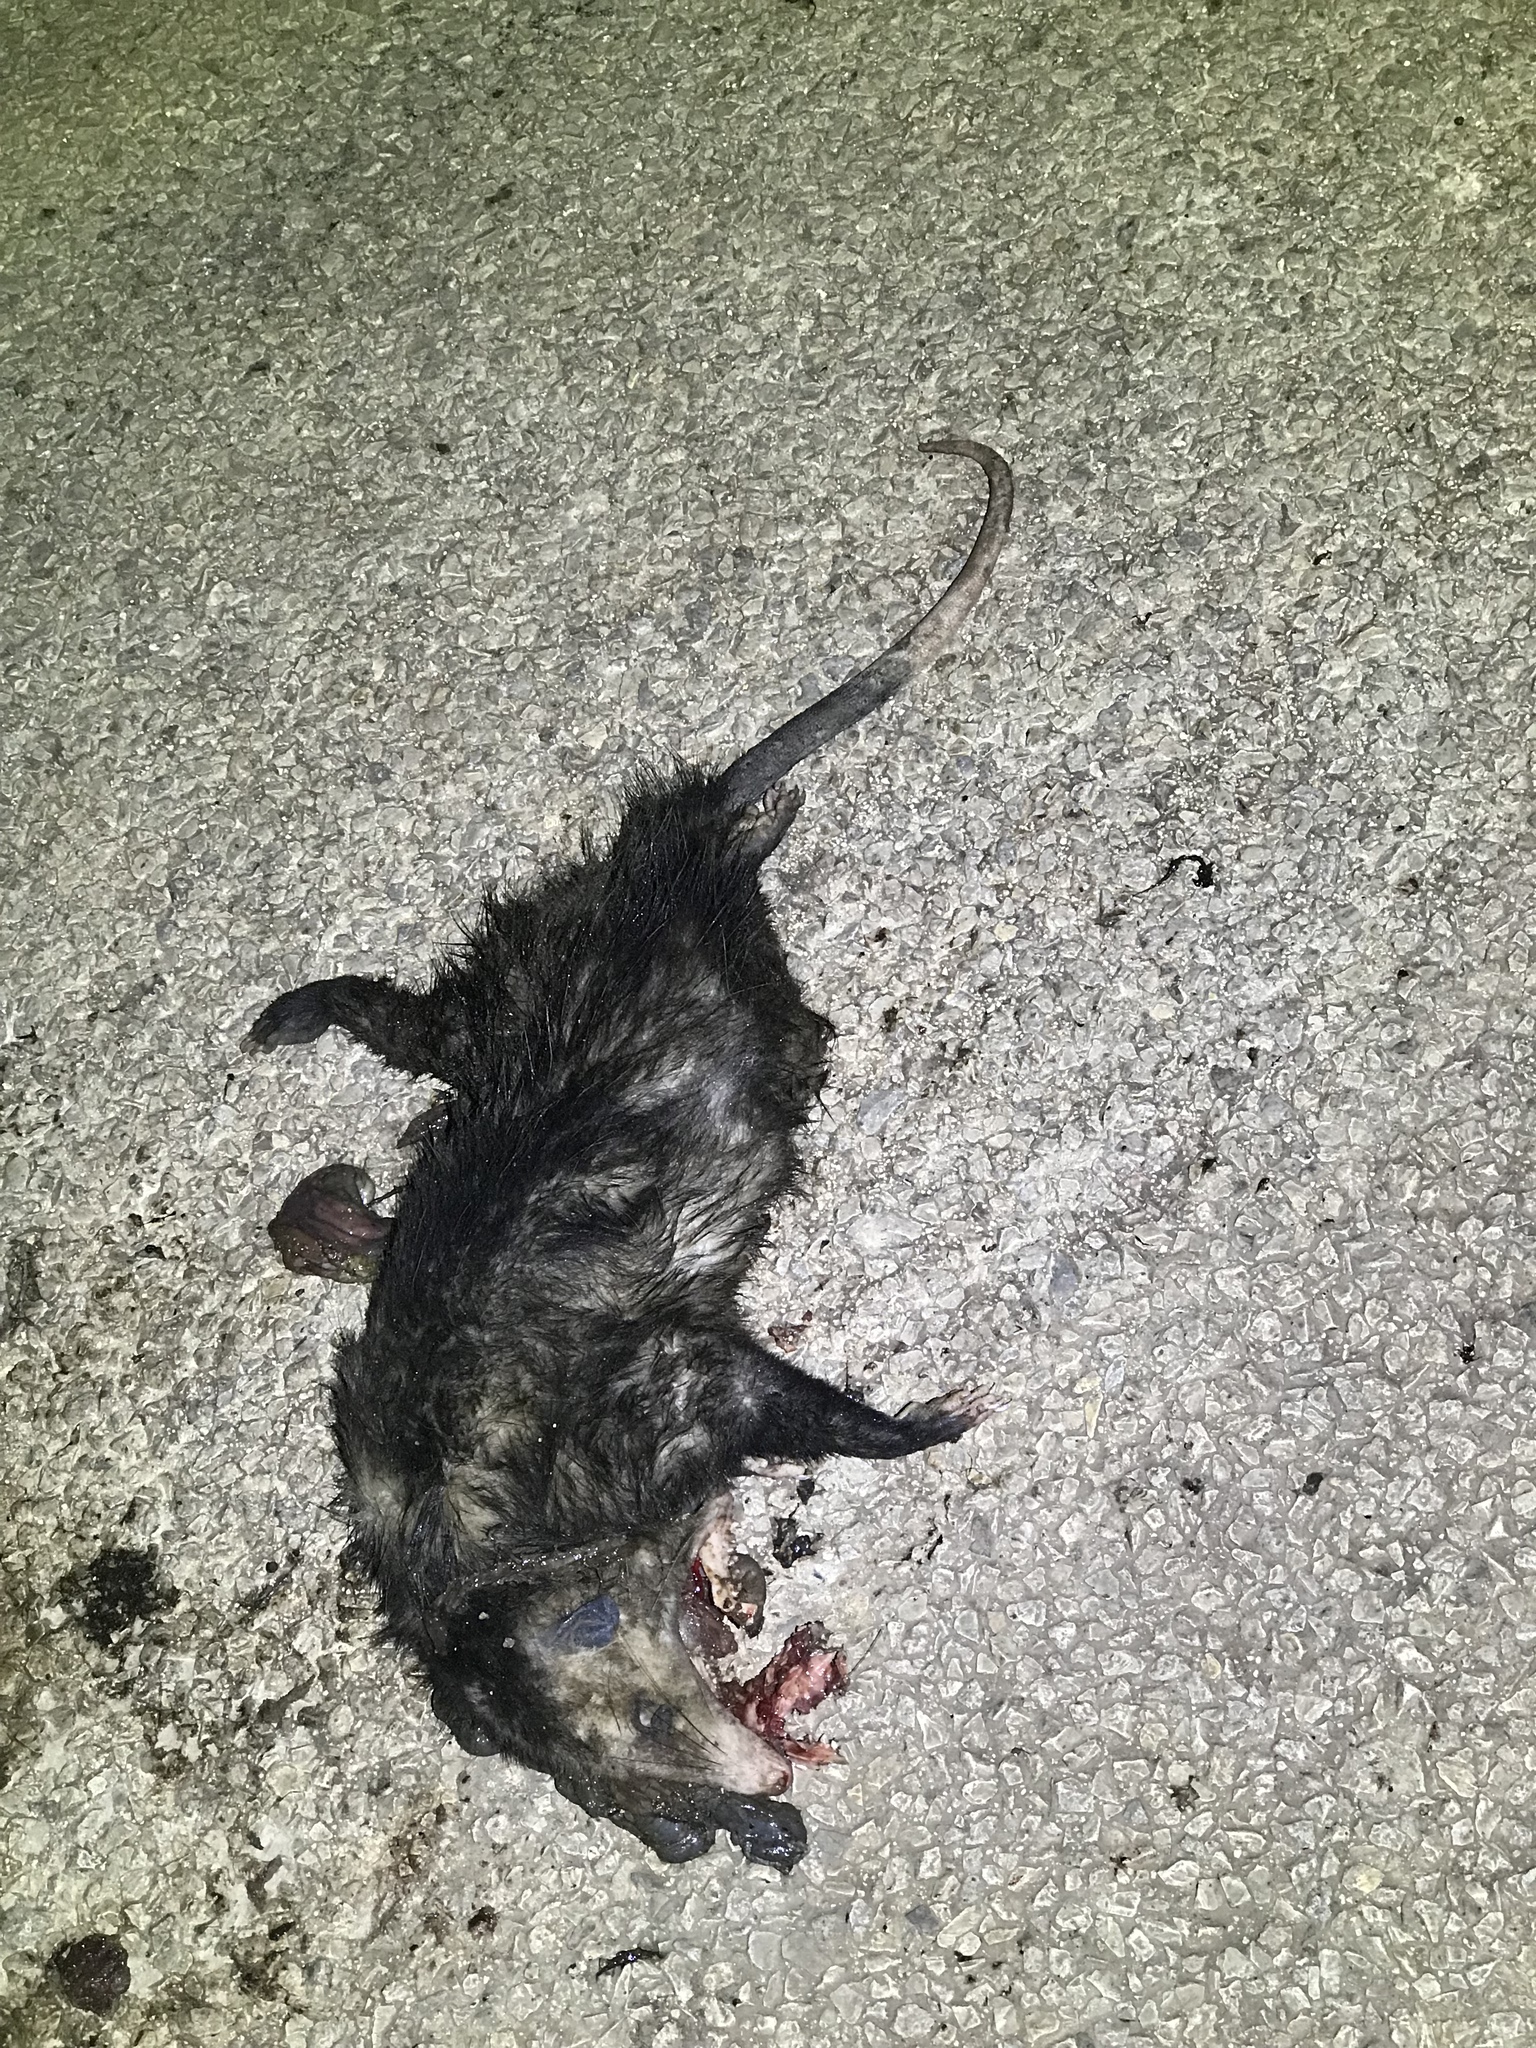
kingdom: Animalia
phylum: Chordata
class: Mammalia
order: Didelphimorphia
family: Didelphidae
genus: Didelphis
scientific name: Didelphis virginiana
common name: Virginia opossum
